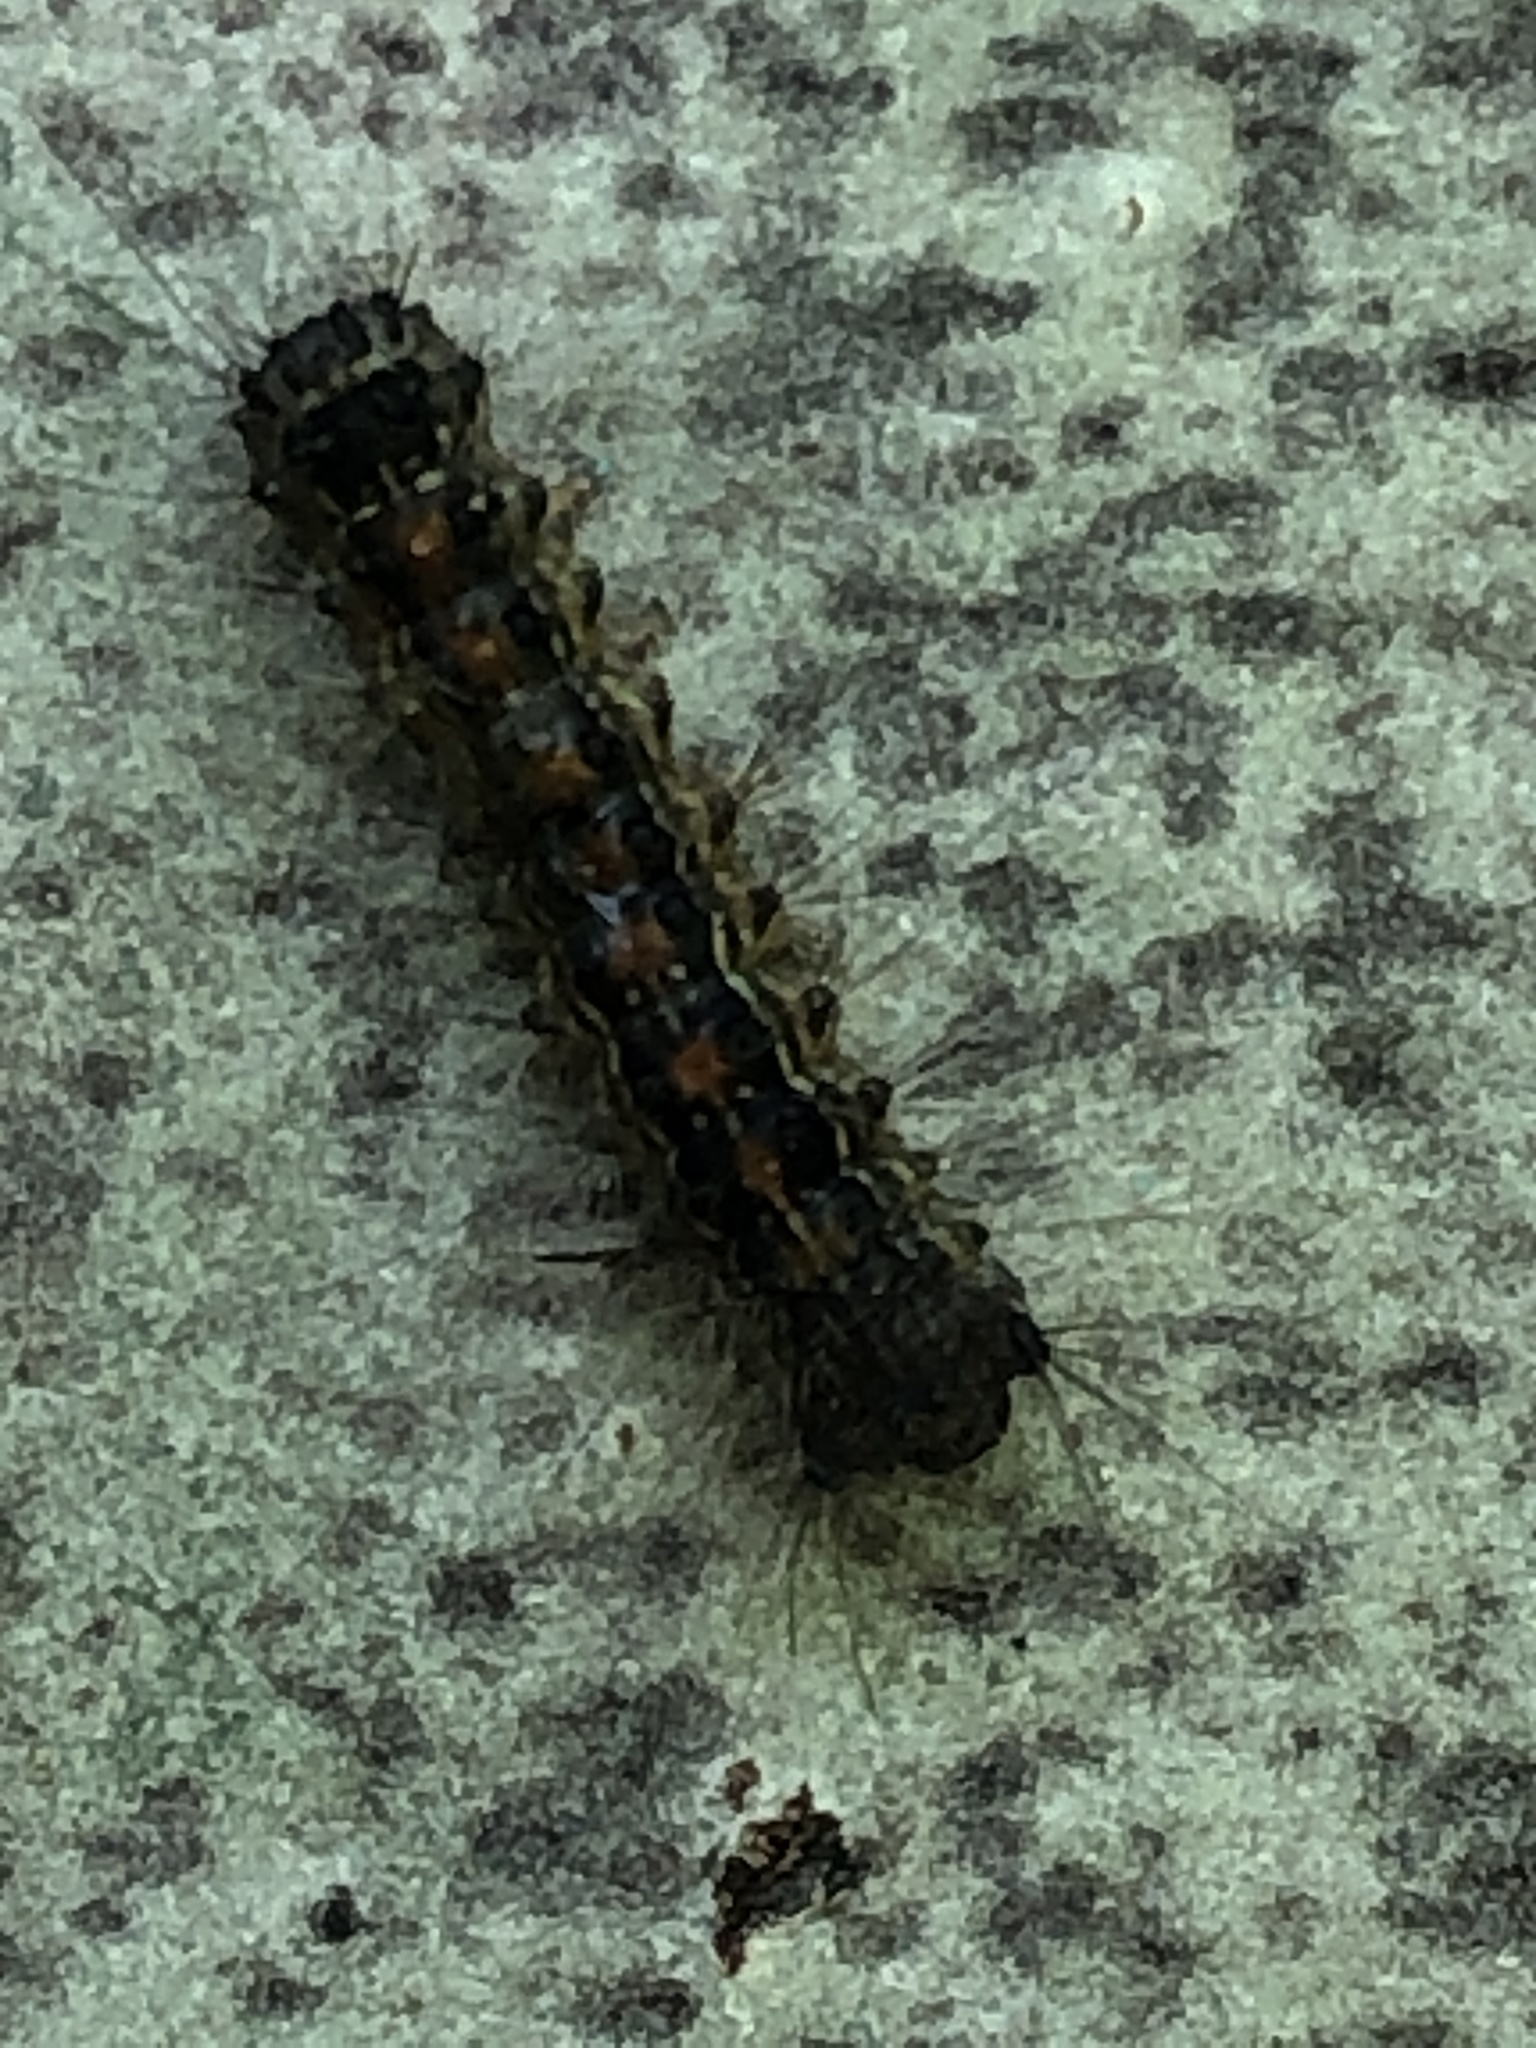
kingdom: Animalia
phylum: Arthropoda
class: Insecta
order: Lepidoptera
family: Erebidae
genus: Lymantria
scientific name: Lymantria dispar
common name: Gypsy moth
